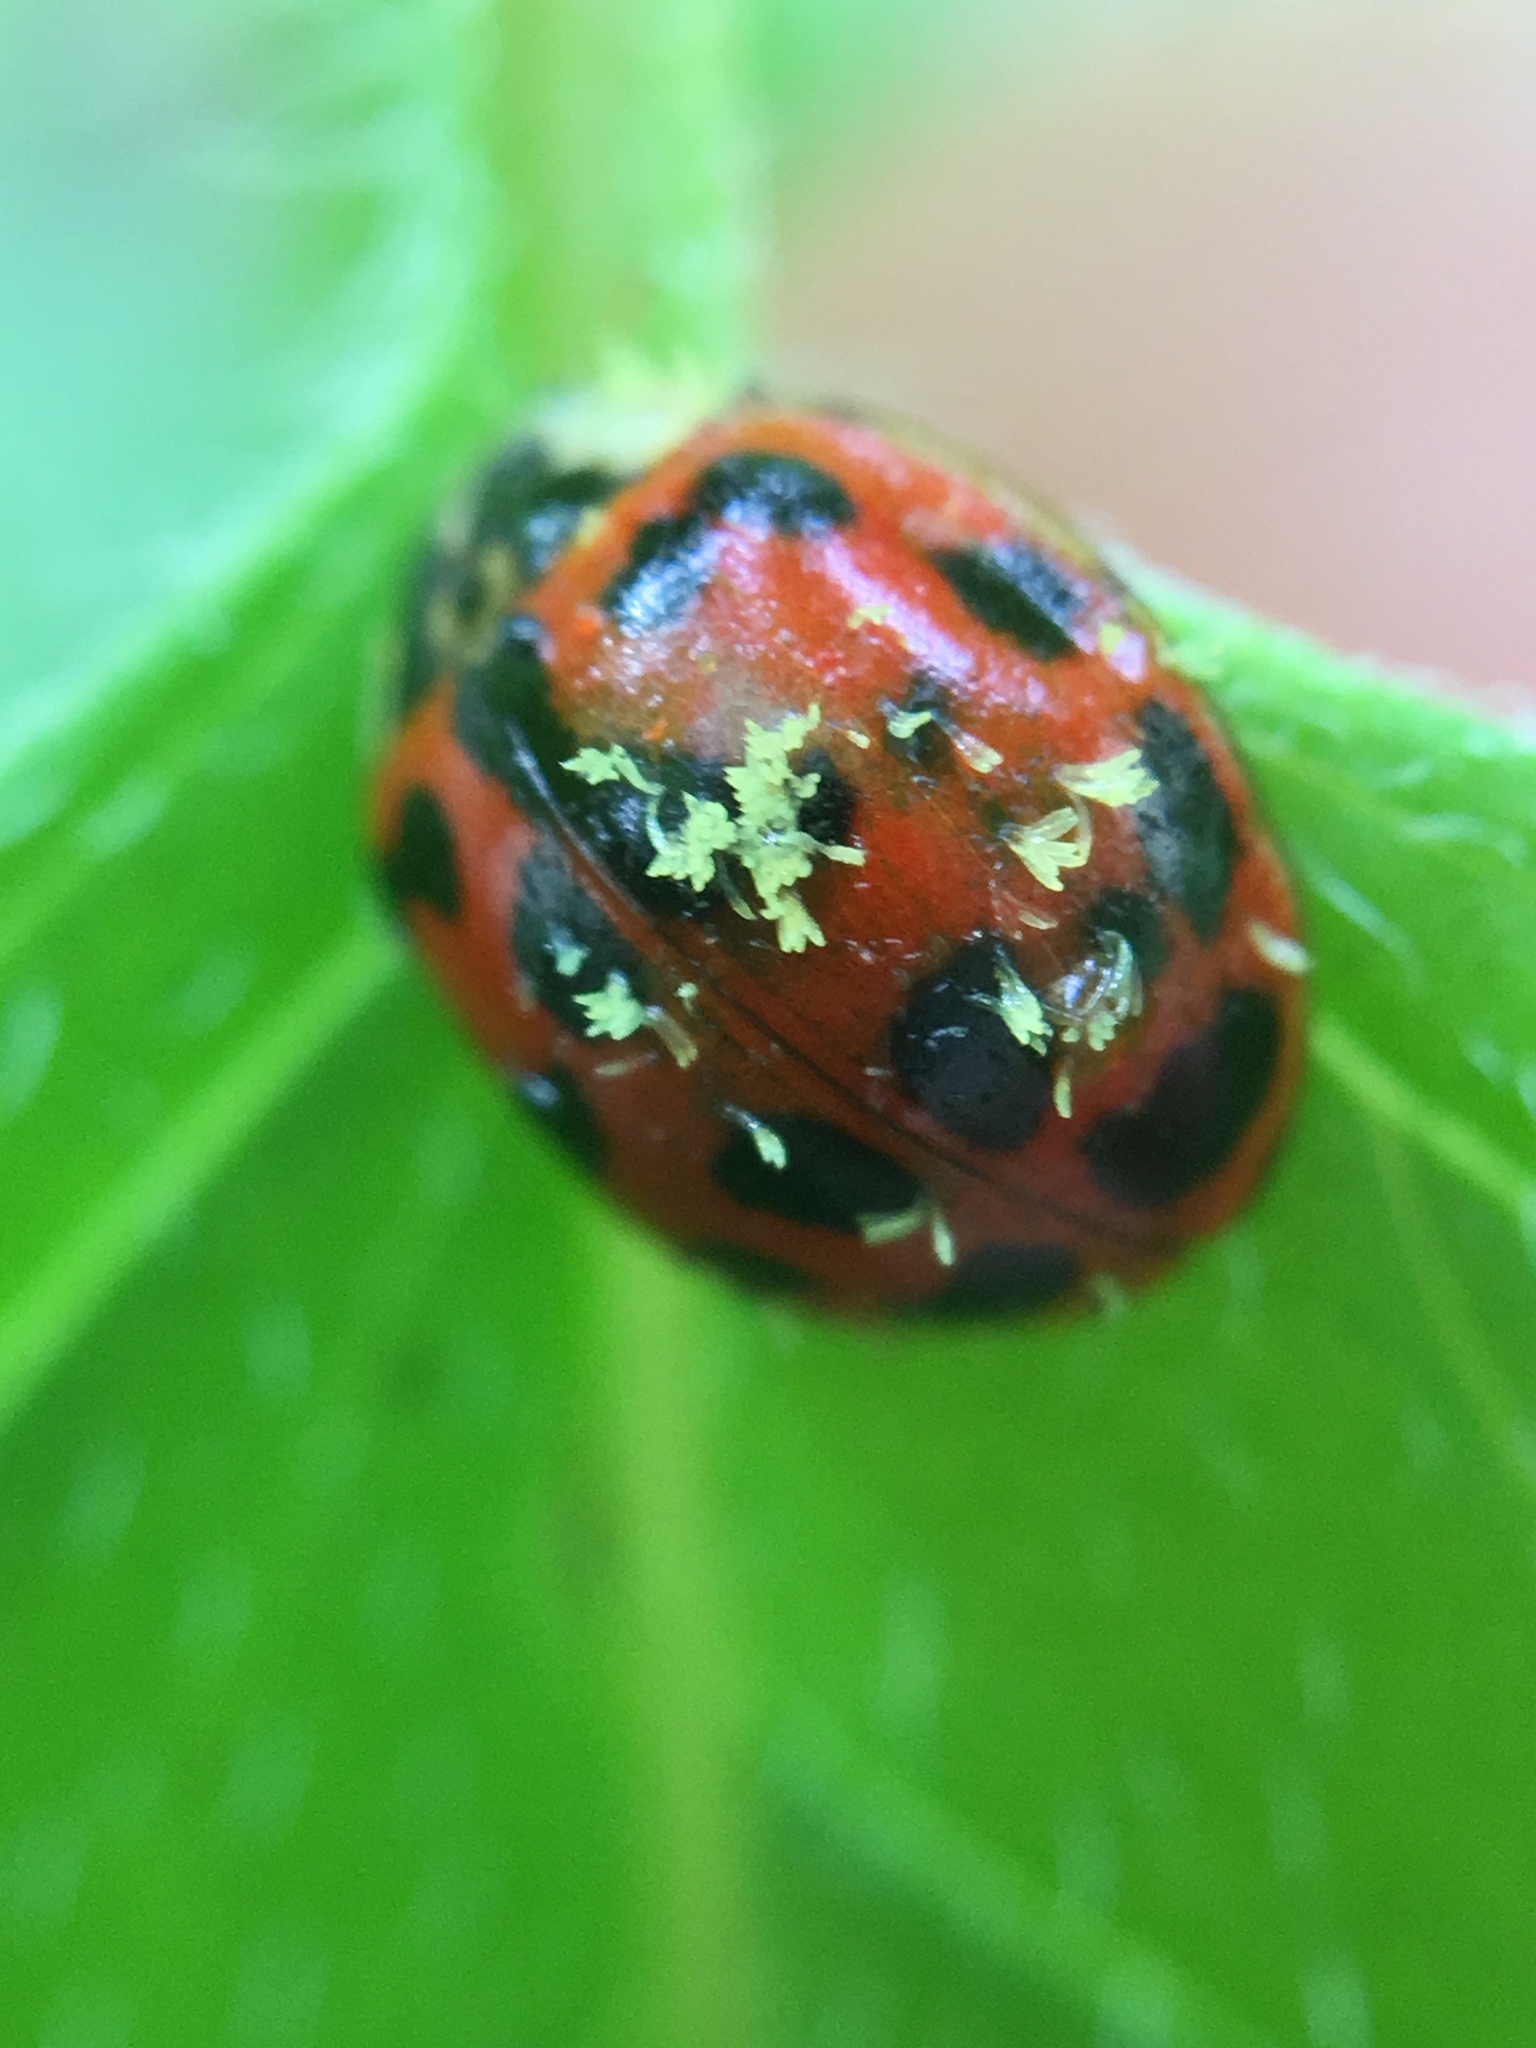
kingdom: Fungi
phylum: Ascomycota
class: Laboulbeniomycetes
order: Laboulbeniales
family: Laboulbeniaceae
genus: Hesperomyces
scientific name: Hesperomyces harmoniae
